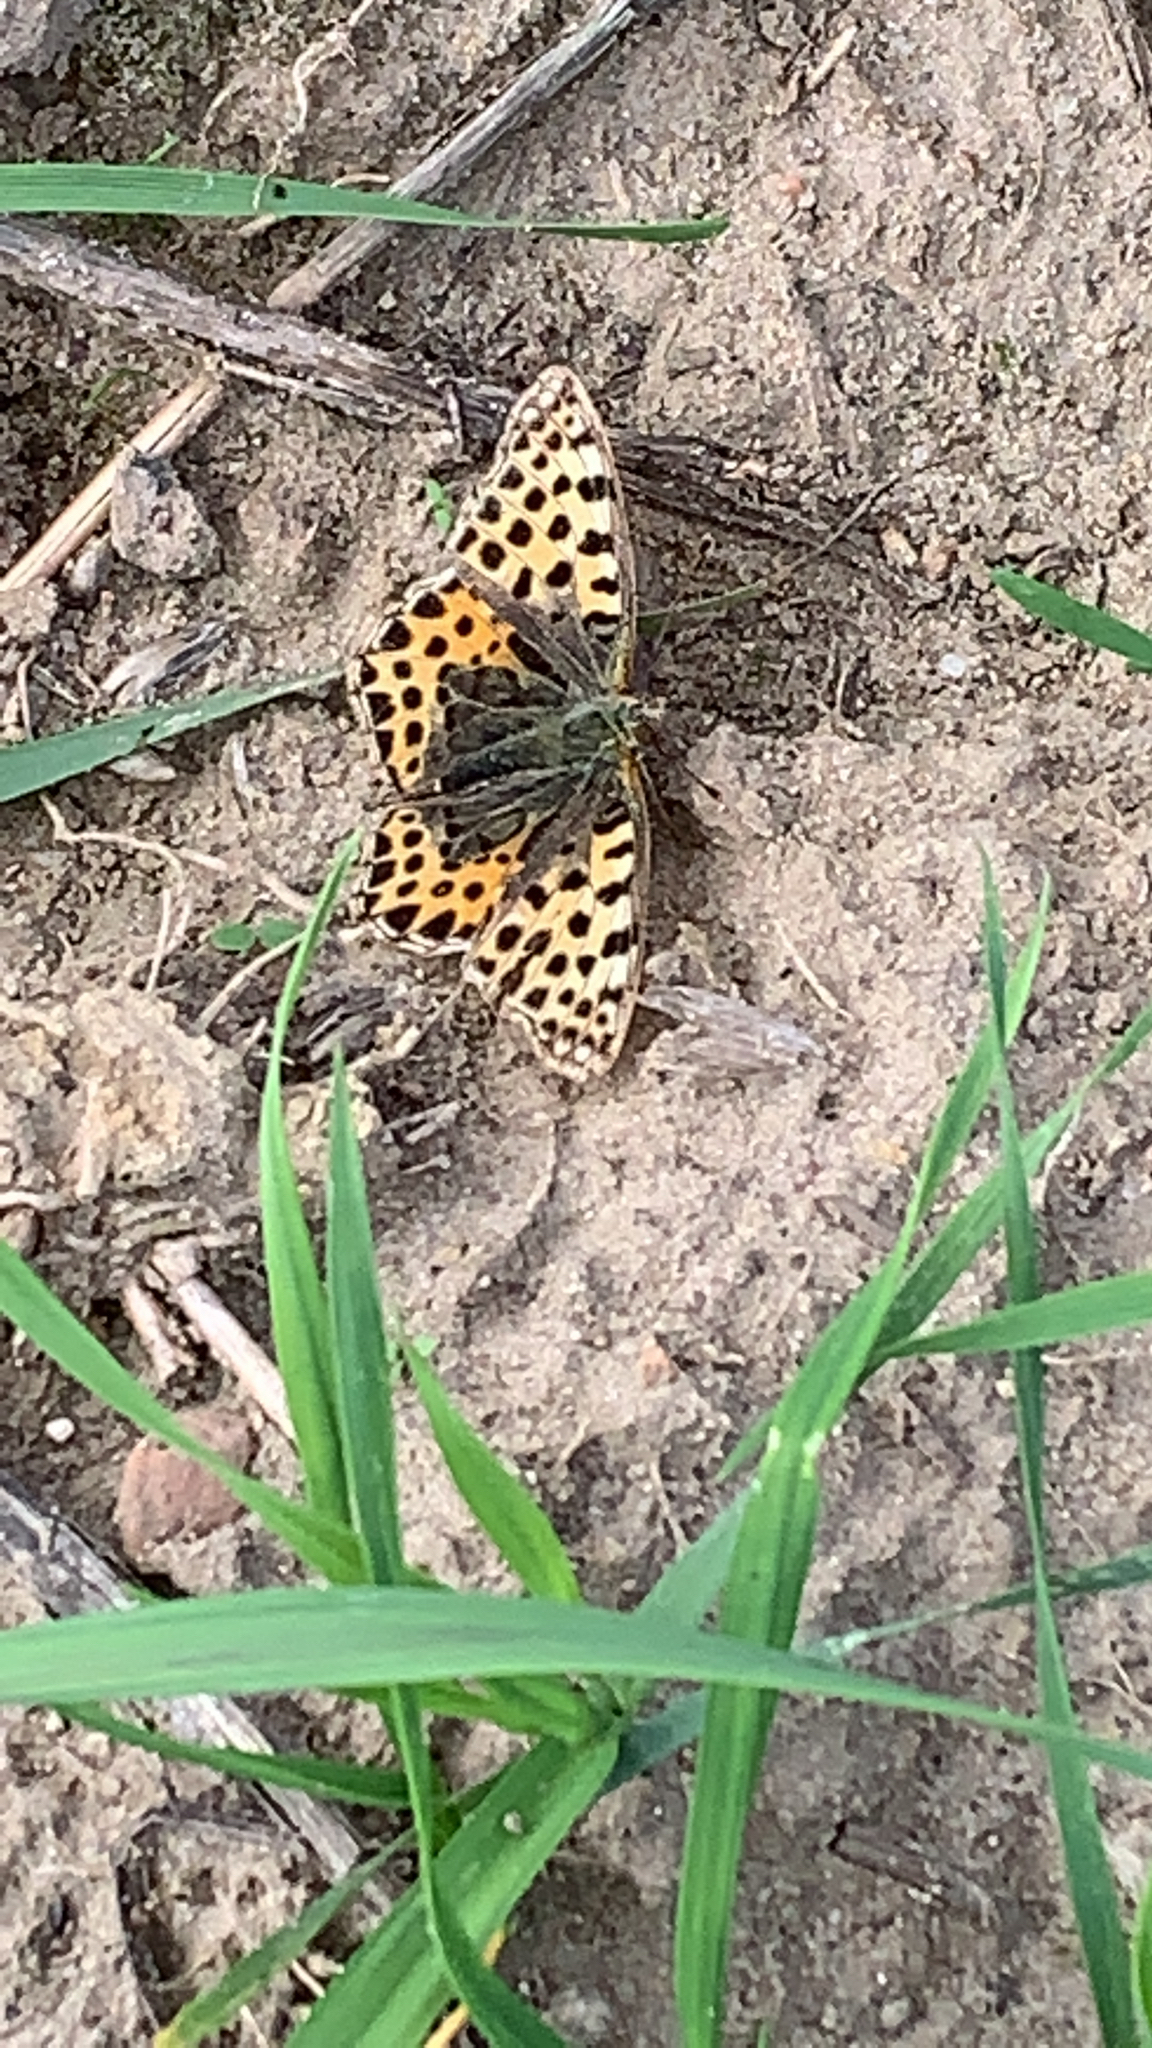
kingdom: Animalia
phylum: Arthropoda
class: Insecta
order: Lepidoptera
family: Nymphalidae
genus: Issoria
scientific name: Issoria lathonia
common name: Queen of spain fritillary
